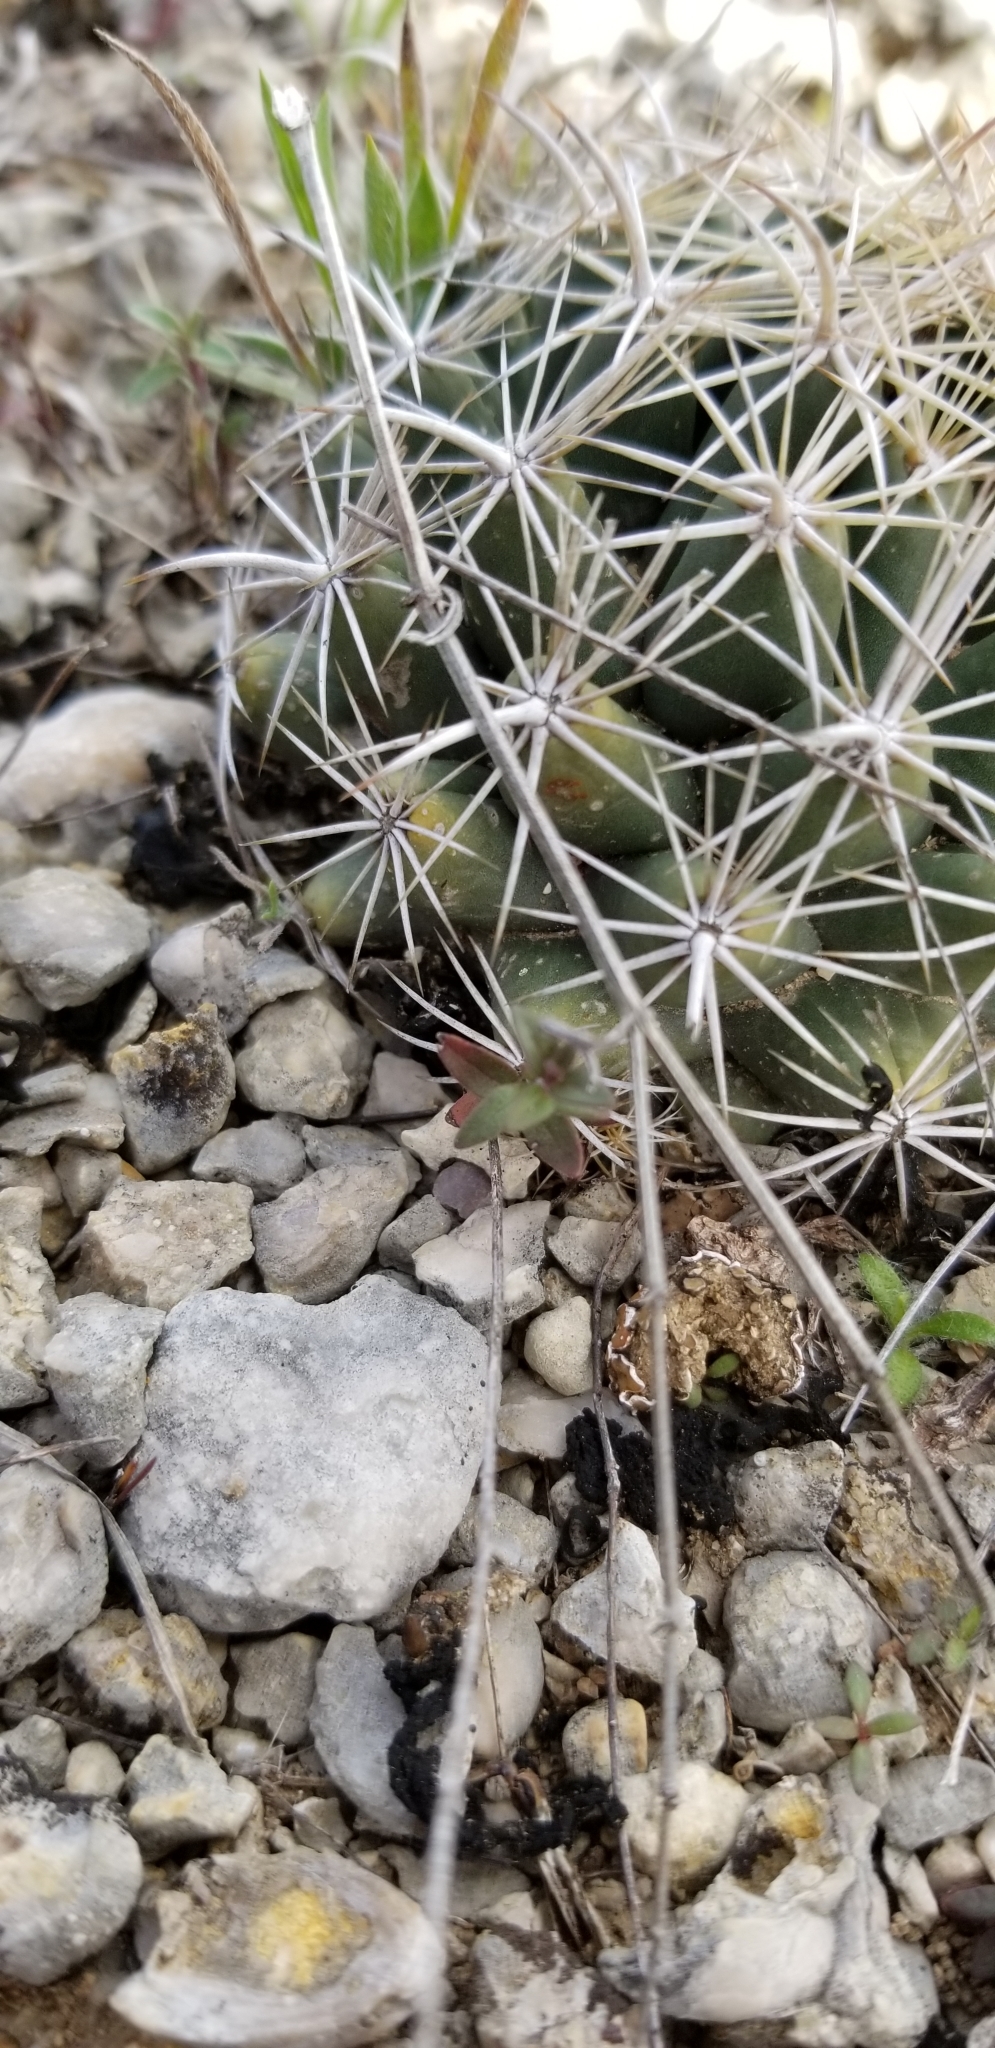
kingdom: Plantae
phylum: Tracheophyta
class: Magnoliopsida
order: Caryophyllales
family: Cactaceae
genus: Coryphantha
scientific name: Coryphantha sulcata
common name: Finger cactus
